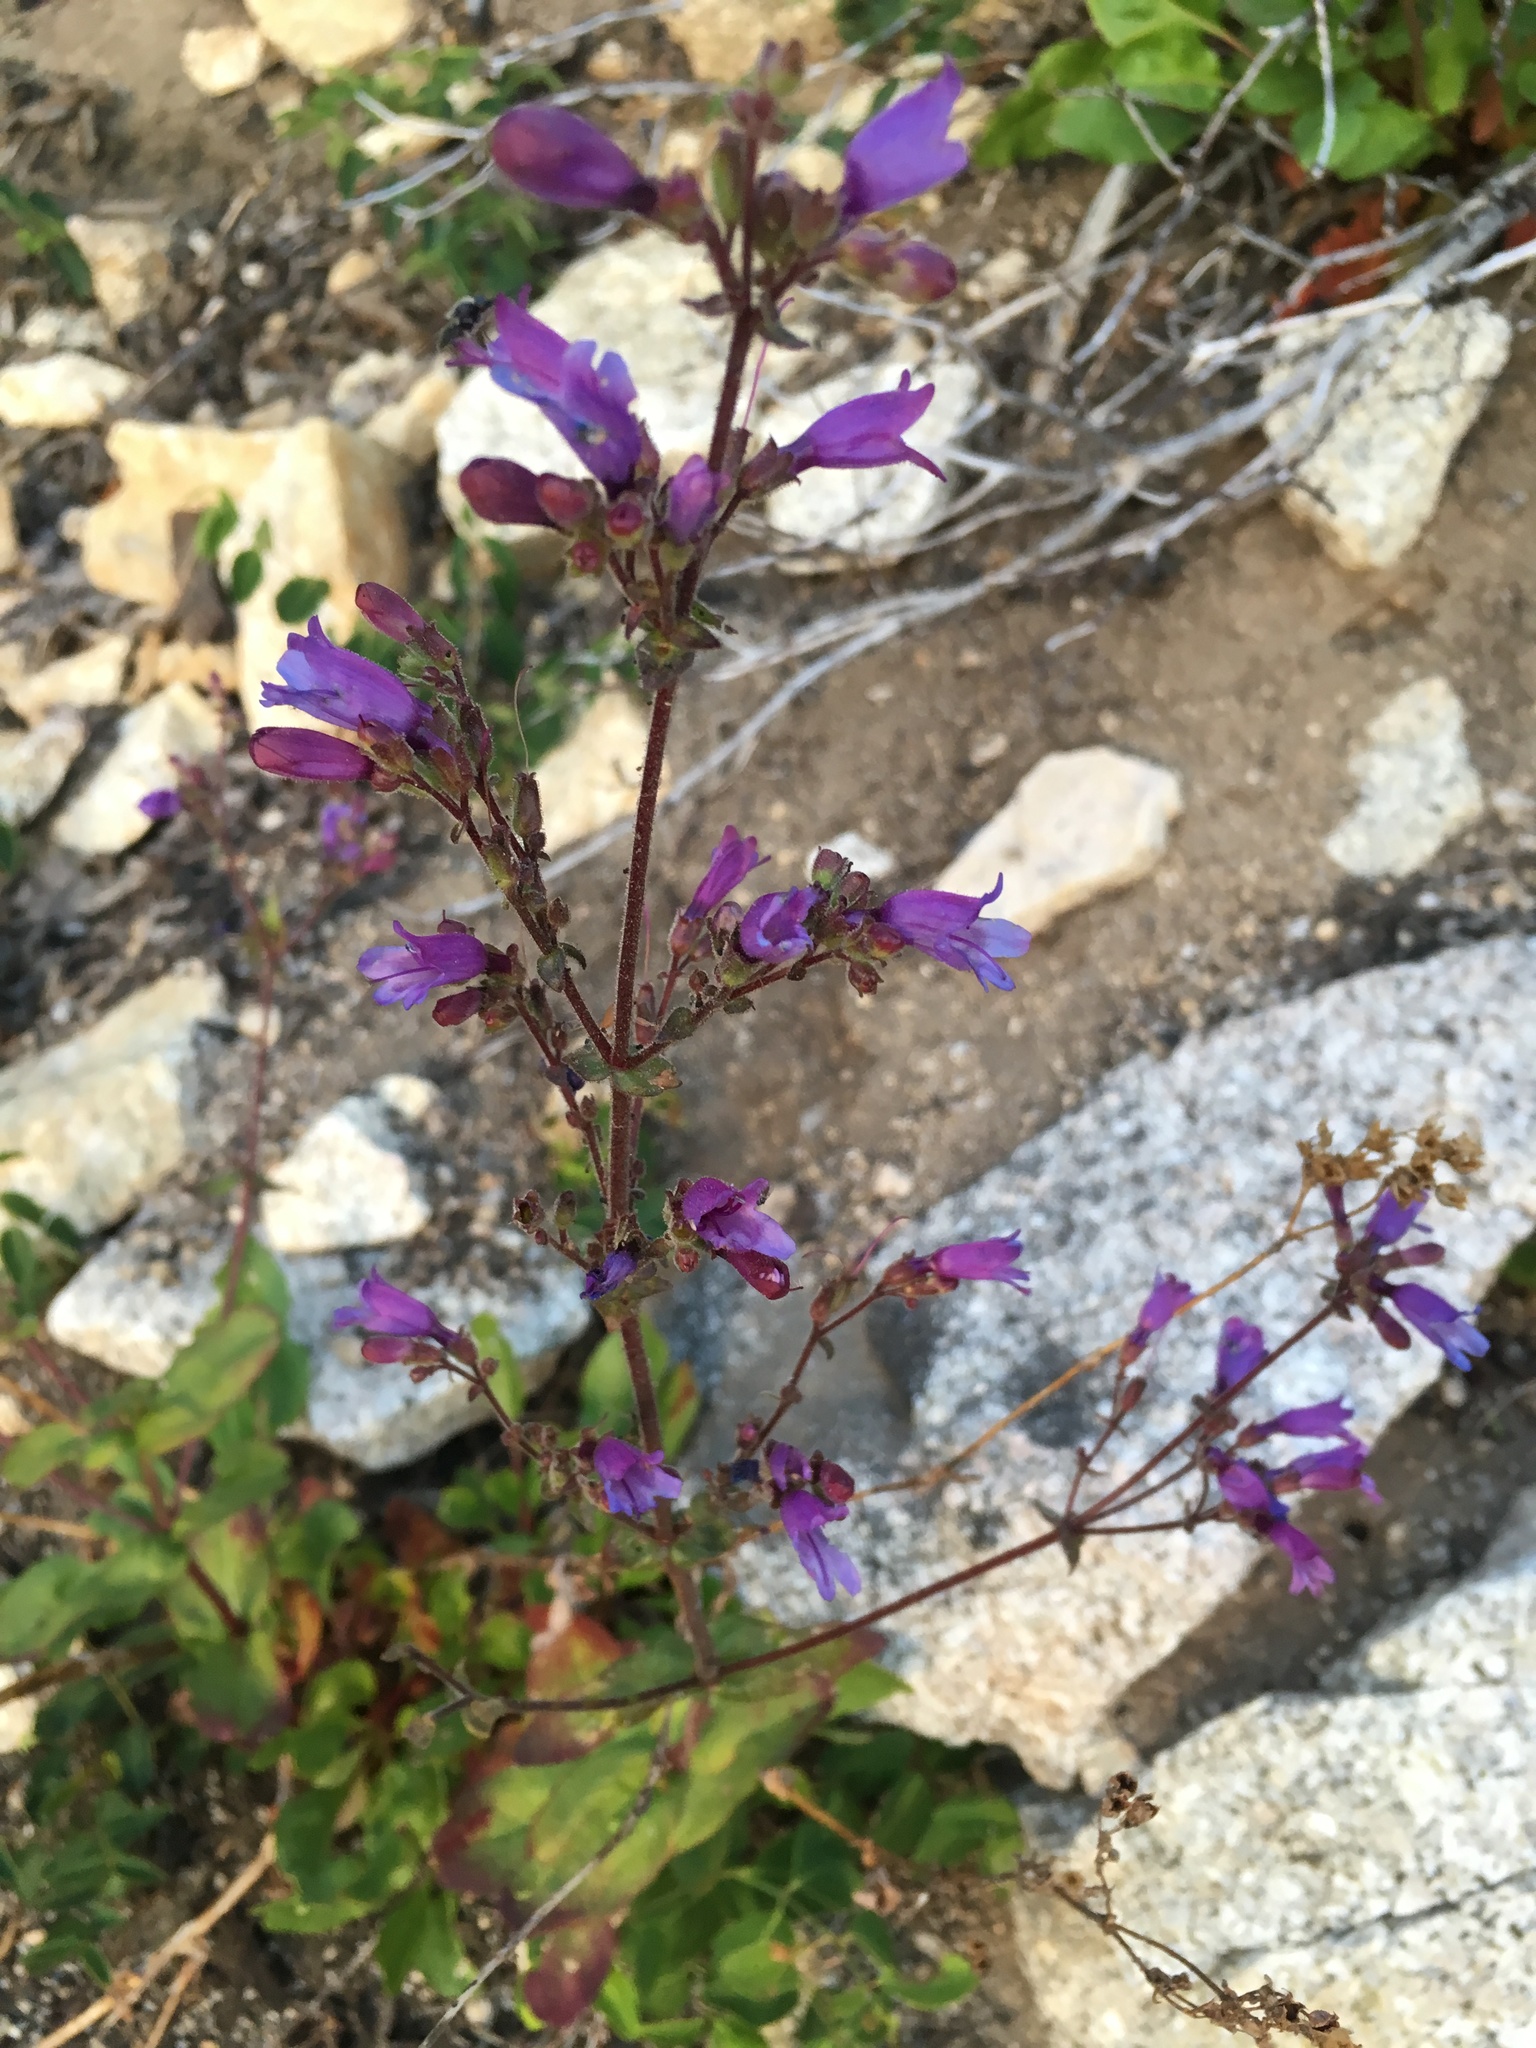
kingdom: Plantae
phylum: Tracheophyta
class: Magnoliopsida
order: Lamiales
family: Plantaginaceae
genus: Penstemon
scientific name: Penstemon anguineus
